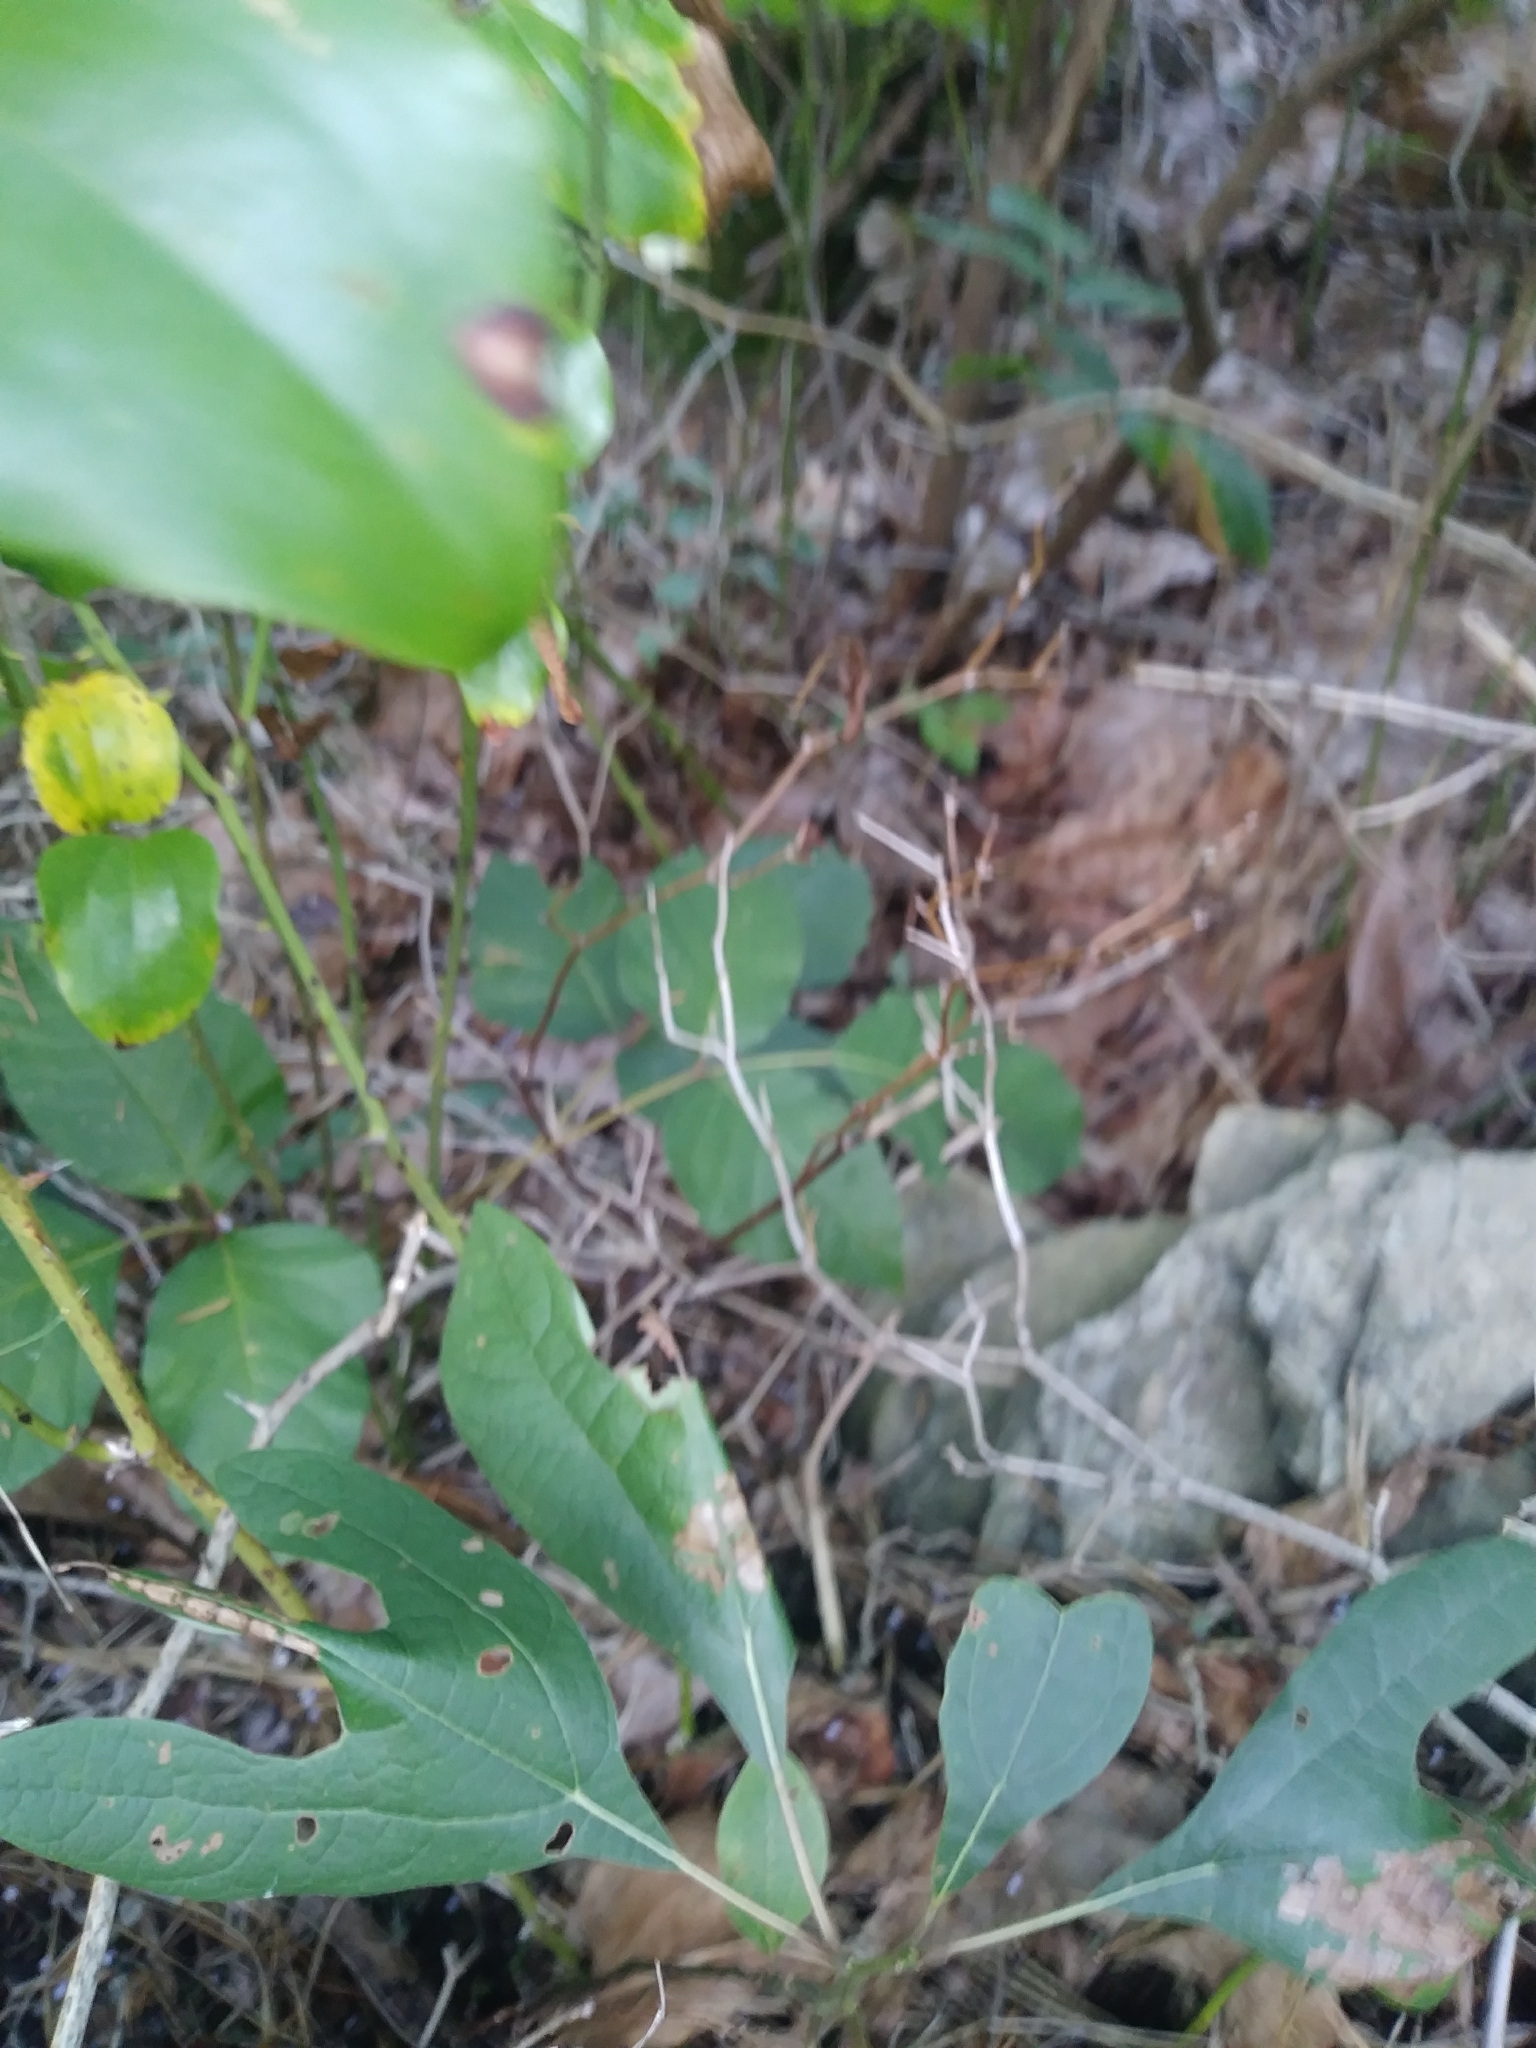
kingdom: Plantae
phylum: Tracheophyta
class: Magnoliopsida
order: Sapindales
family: Anacardiaceae
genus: Toxicodendron
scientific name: Toxicodendron radicans
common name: Poison ivy
